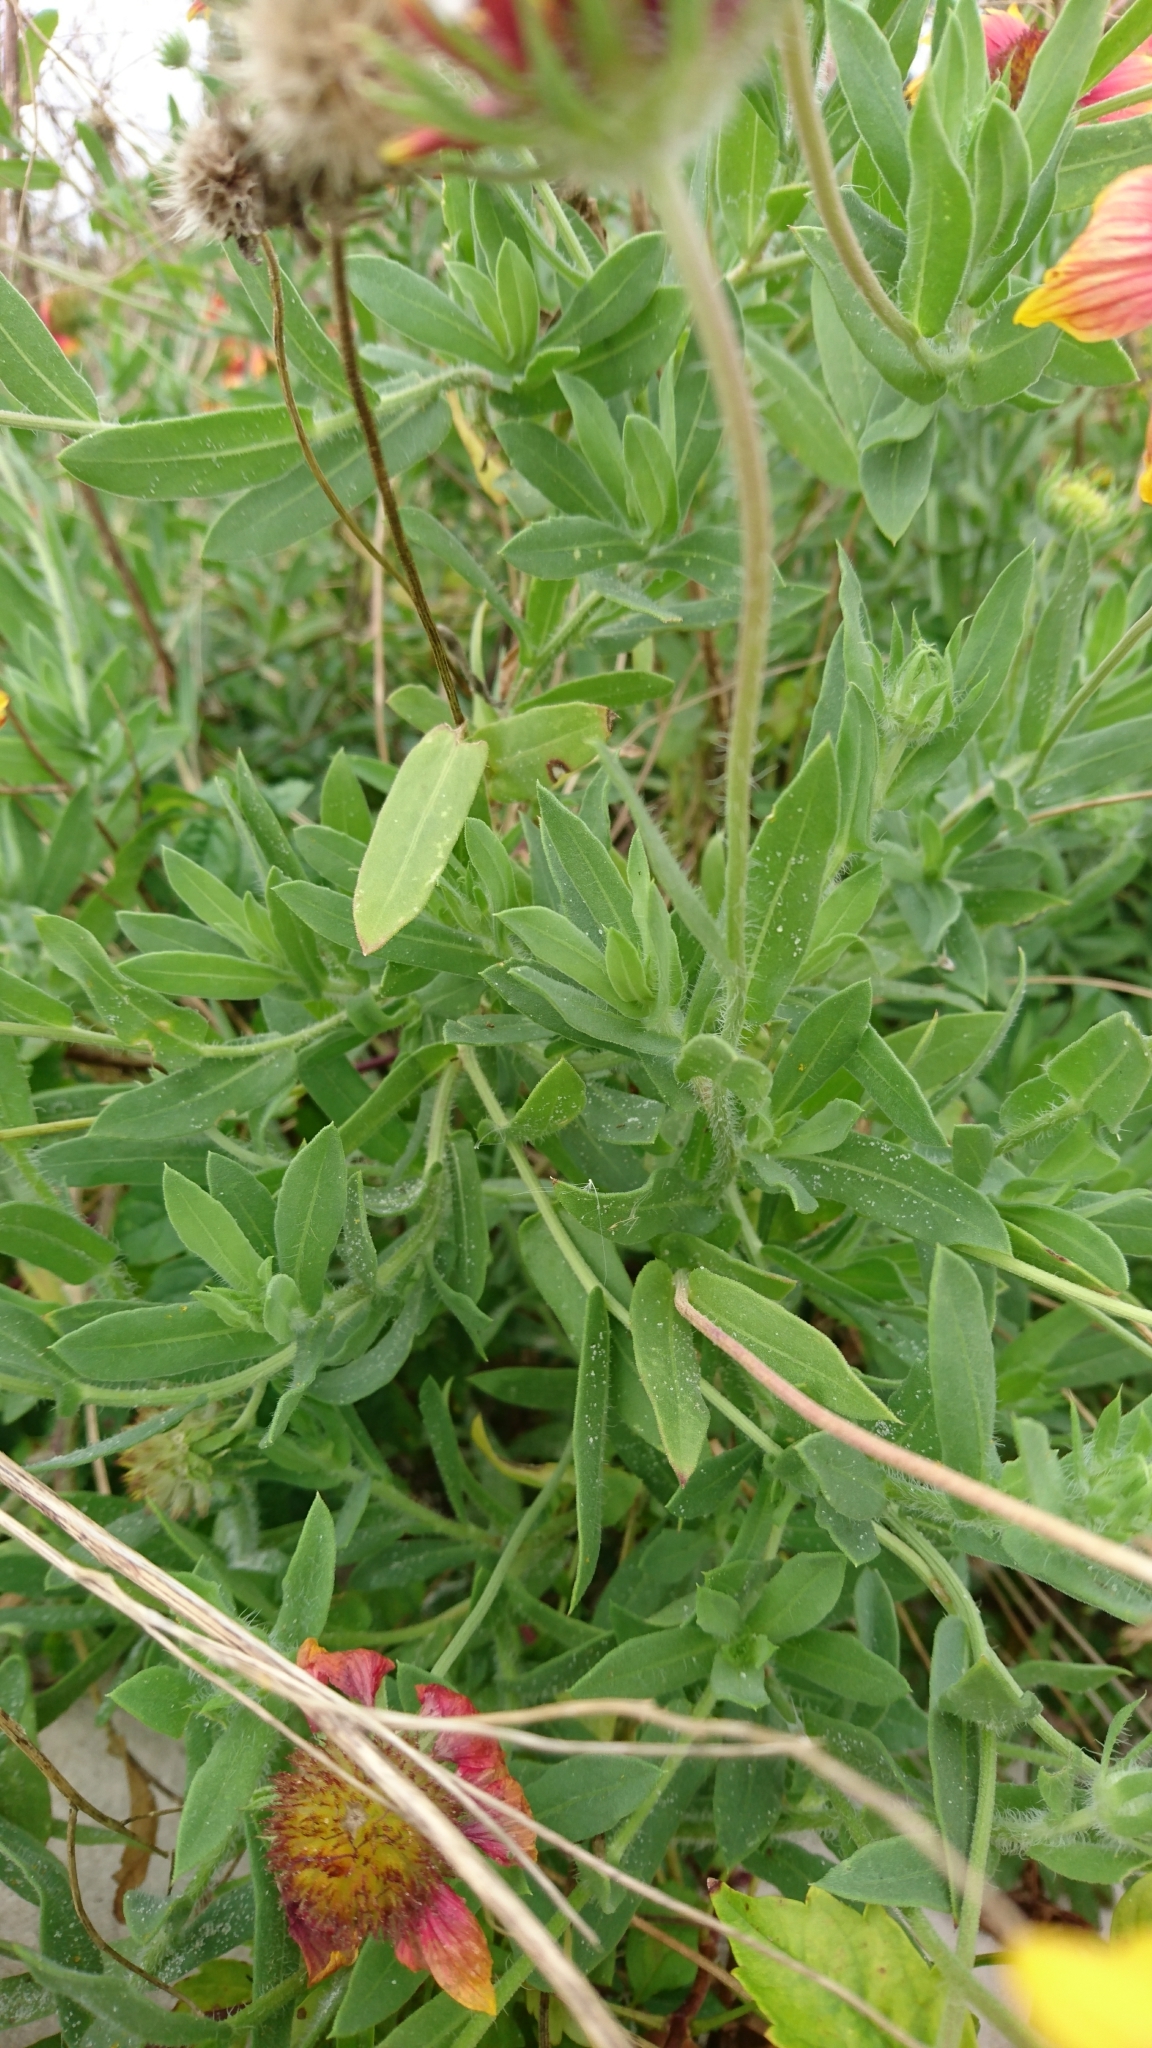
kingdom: Plantae
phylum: Tracheophyta
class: Magnoliopsida
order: Asterales
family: Asteraceae
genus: Gaillardia
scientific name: Gaillardia pulchella
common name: Firewheel
